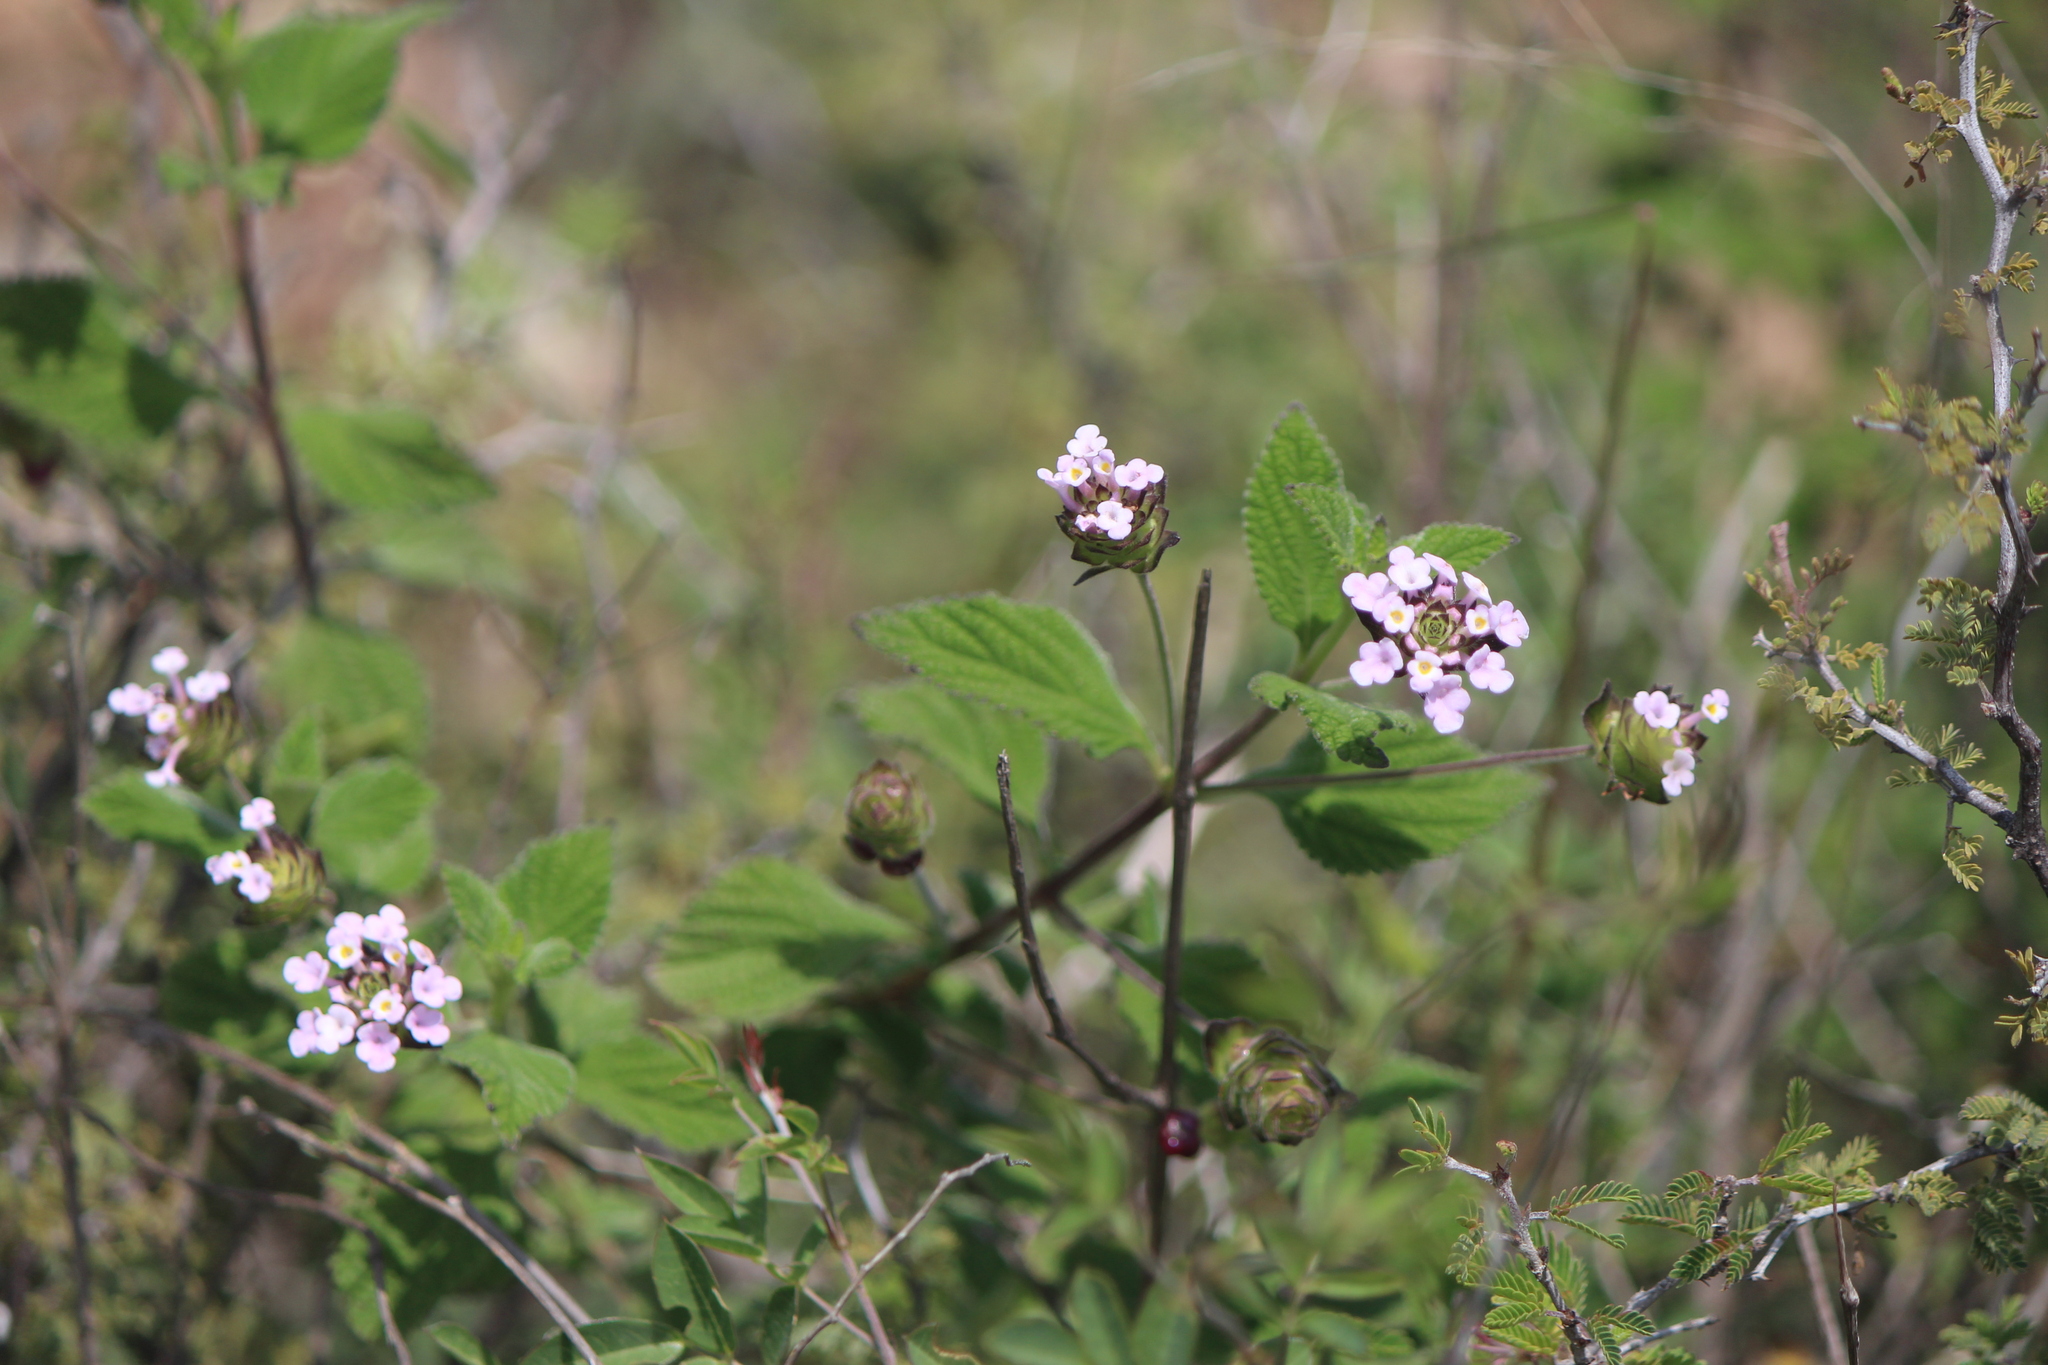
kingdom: Plantae
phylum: Tracheophyta
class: Magnoliopsida
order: Lamiales
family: Verbenaceae
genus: Lantana
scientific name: Lantana velutina
